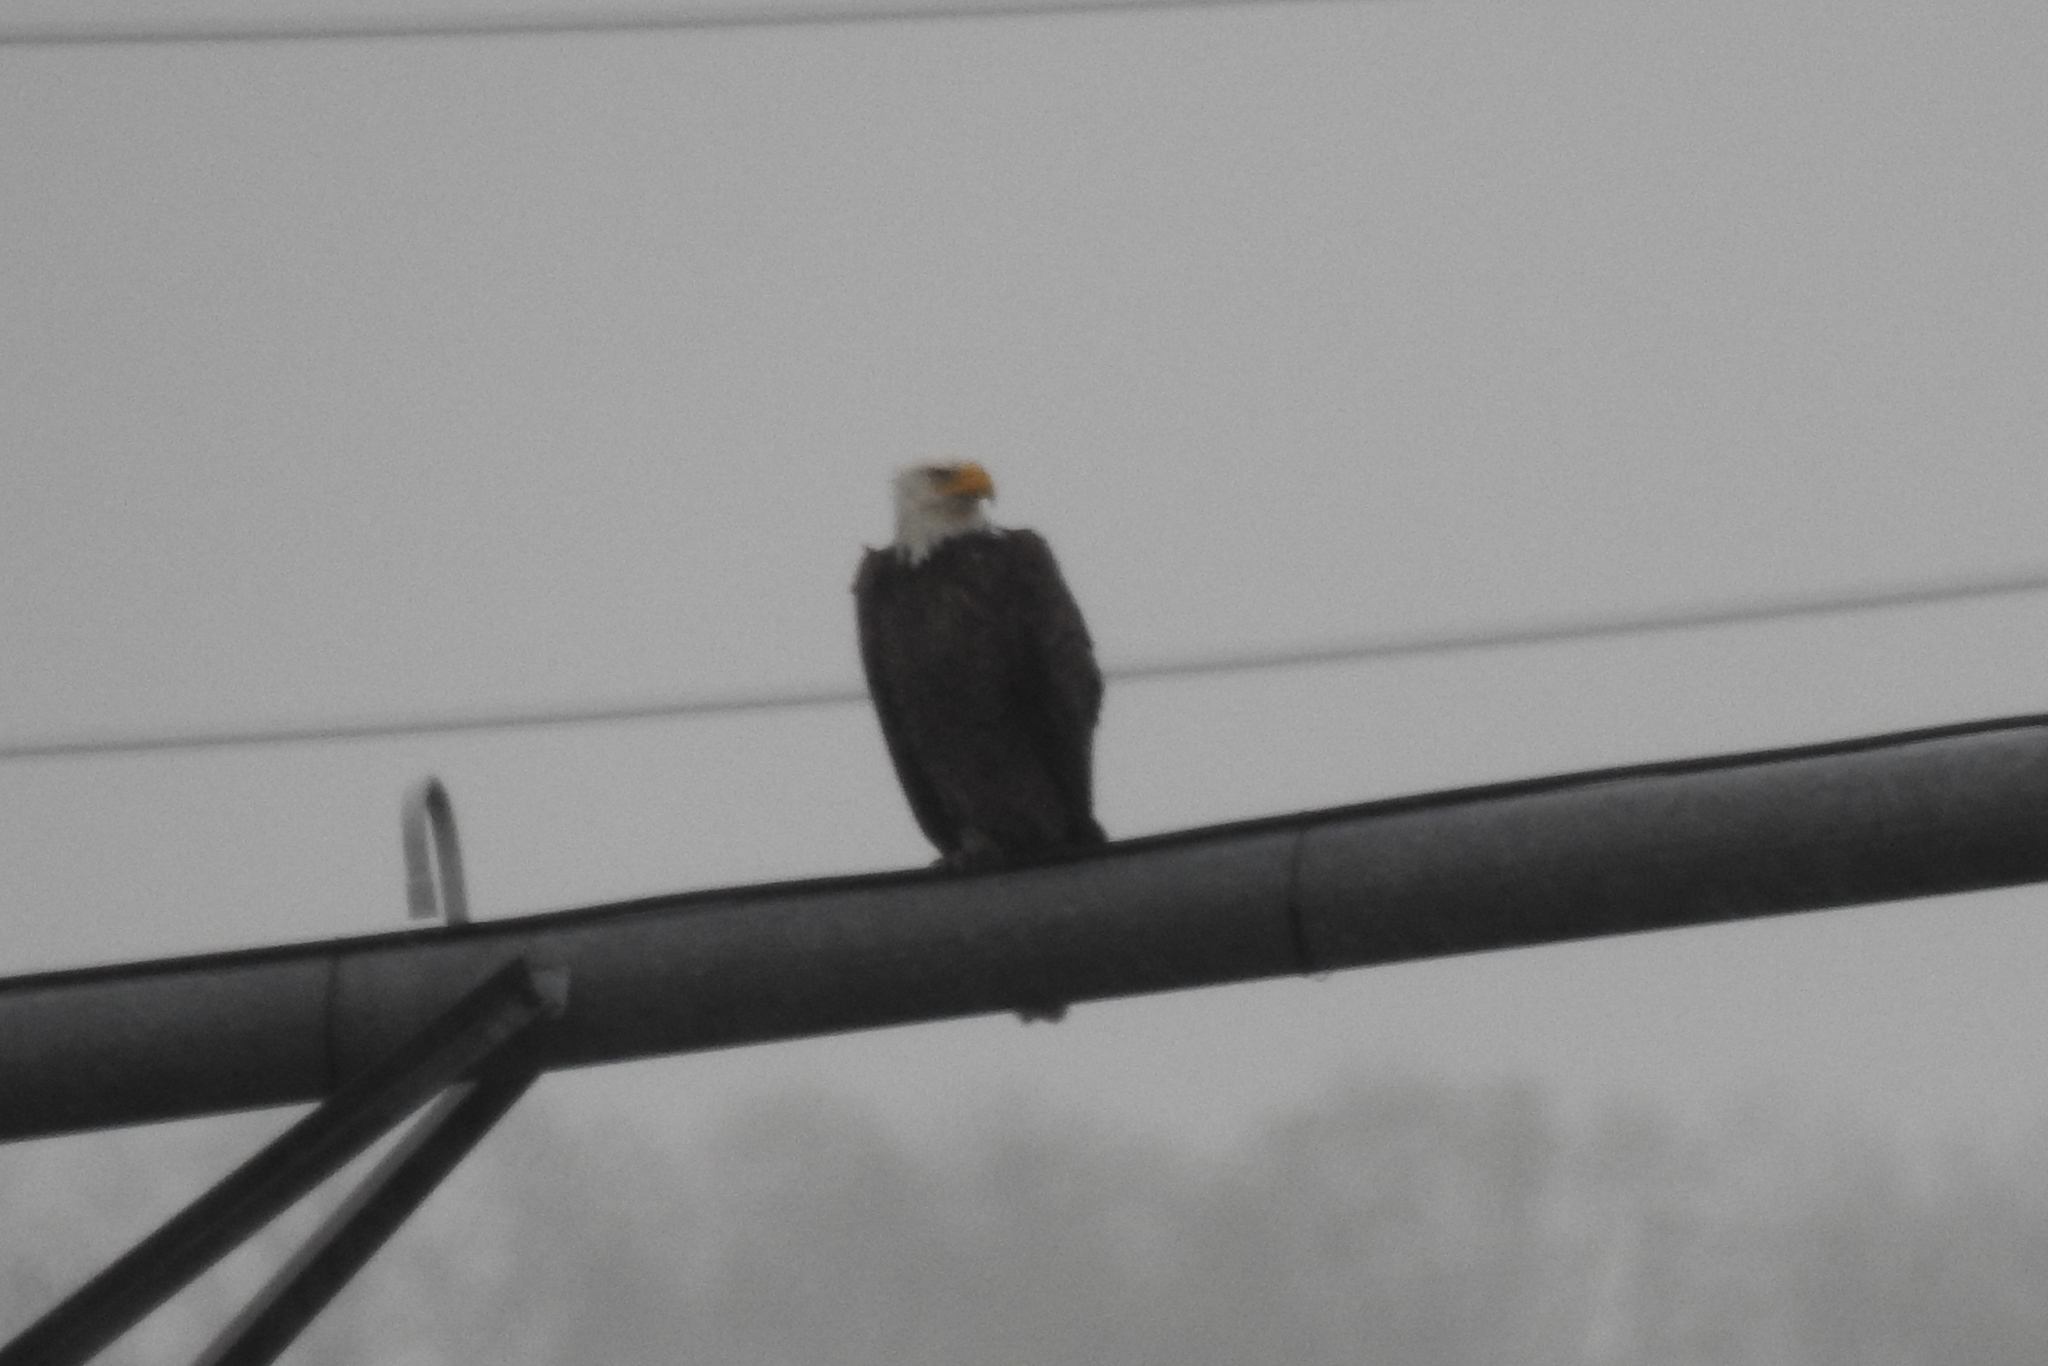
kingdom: Animalia
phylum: Chordata
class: Aves
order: Accipitriformes
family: Accipitridae
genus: Haliaeetus
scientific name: Haliaeetus leucocephalus
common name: Bald eagle
